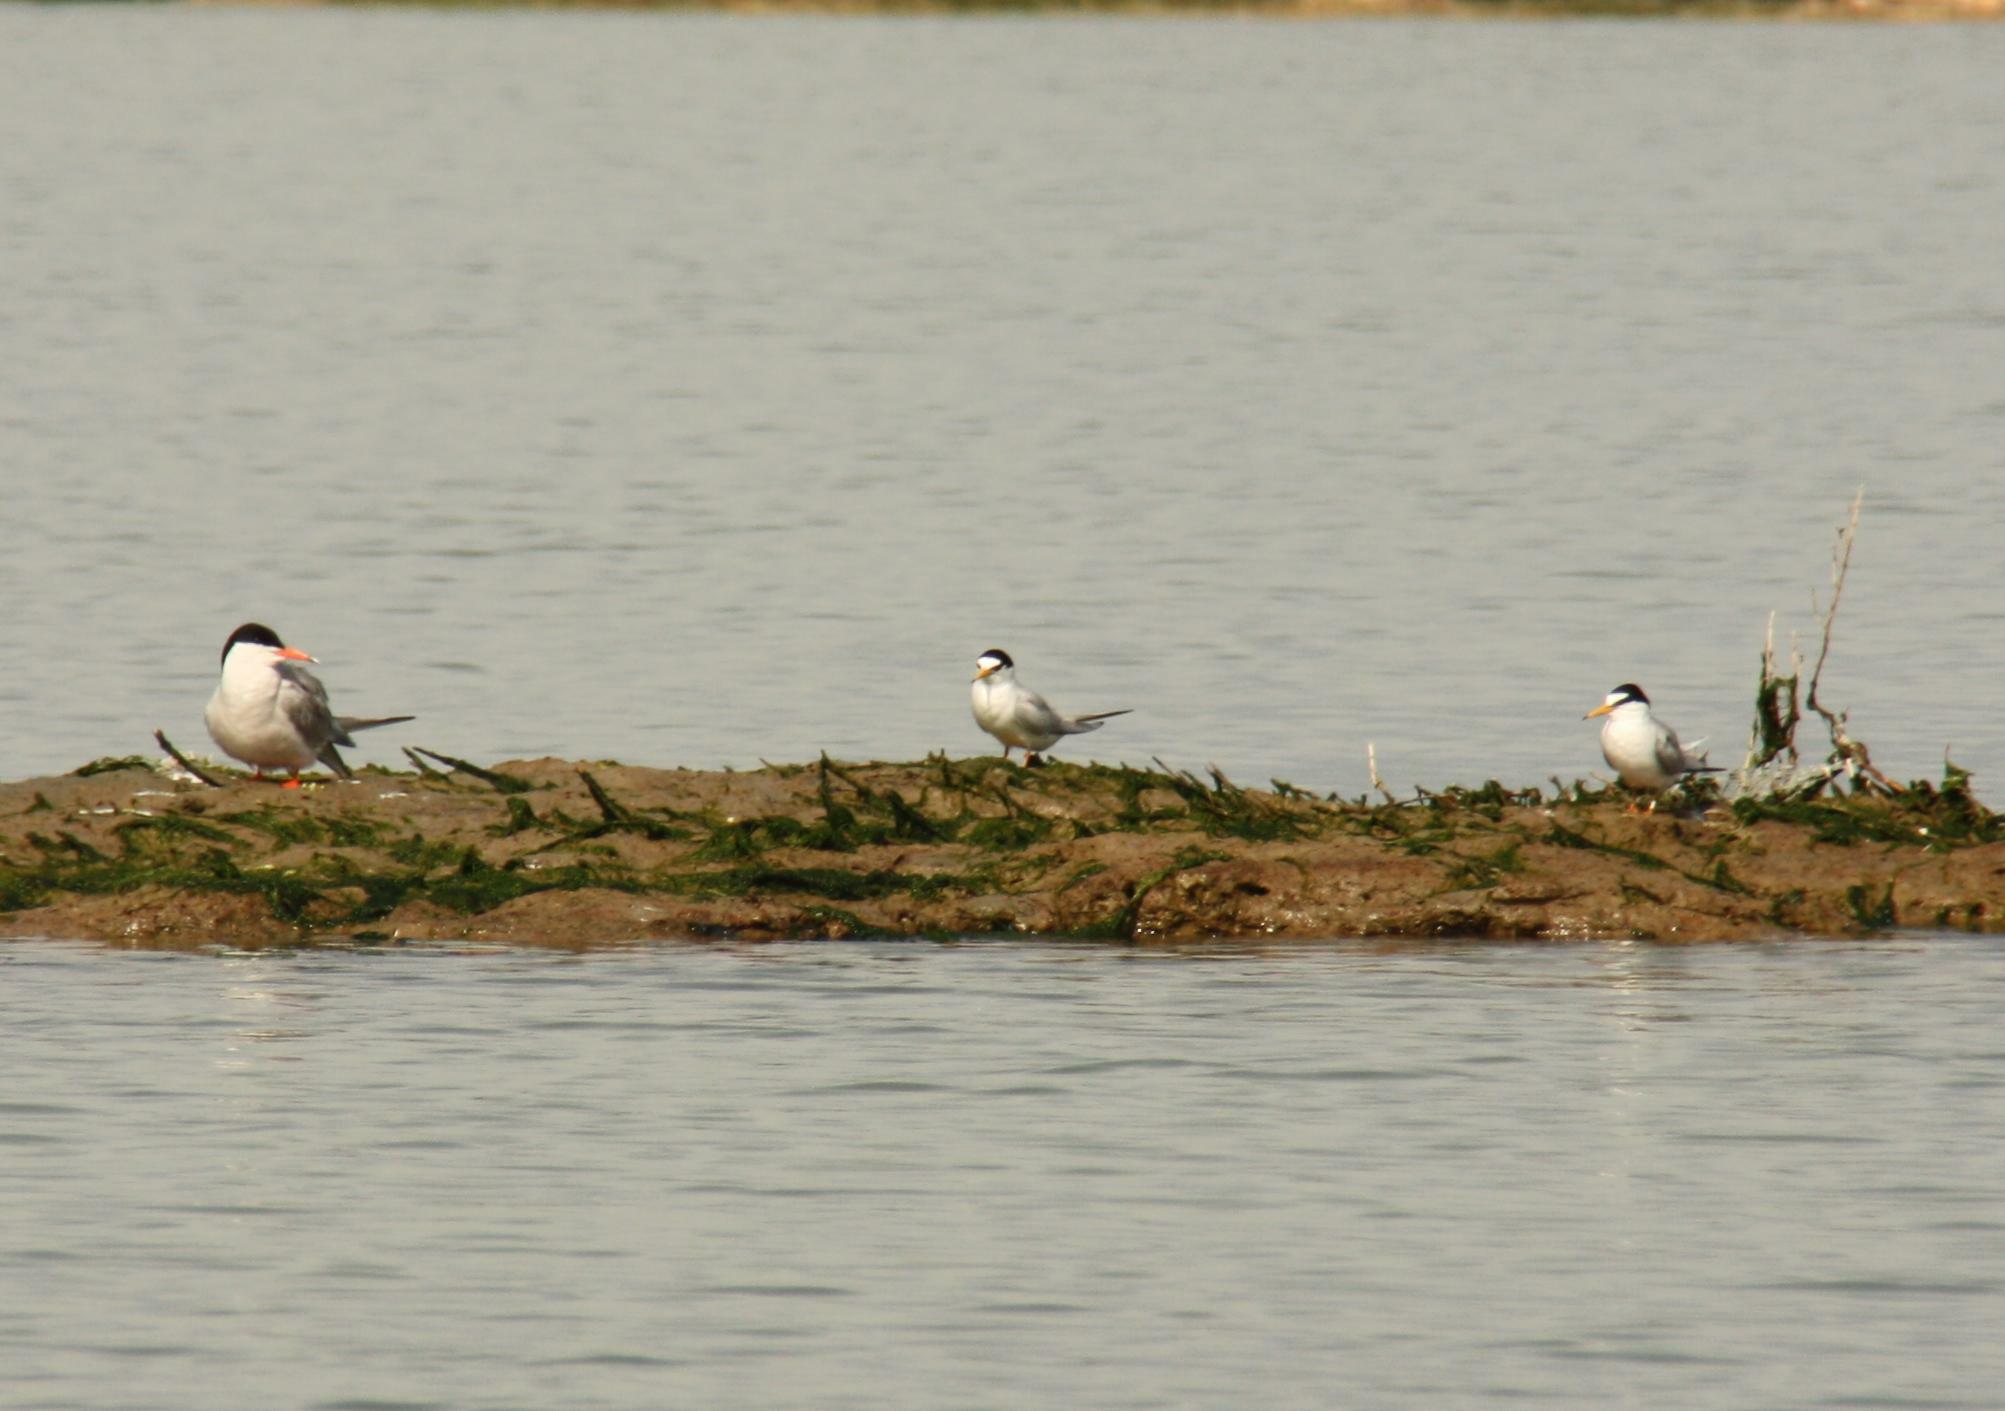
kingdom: Animalia
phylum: Chordata
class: Aves
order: Charadriiformes
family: Laridae
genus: Sternula
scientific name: Sternula albifrons
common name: Little tern
